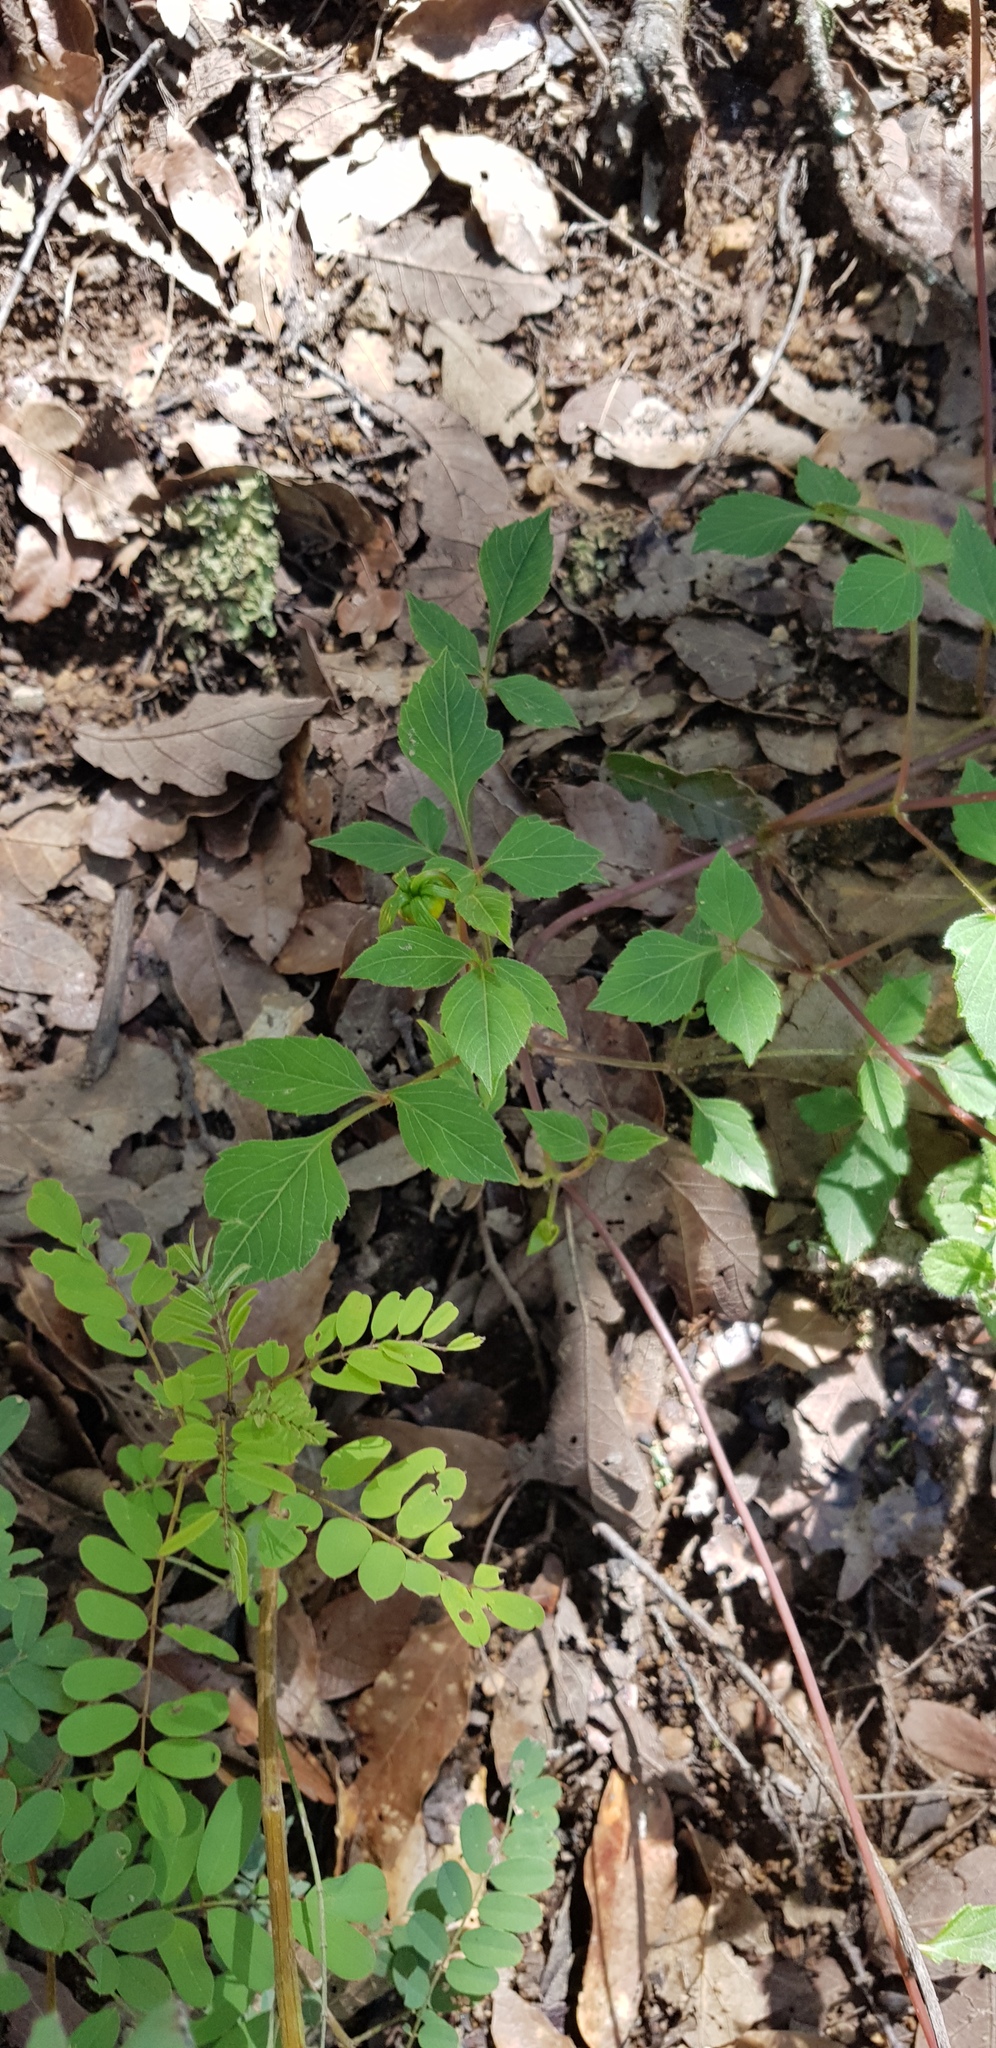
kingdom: Plantae
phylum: Tracheophyta
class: Magnoliopsida
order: Asterales
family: Asteraceae
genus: Dahlia
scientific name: Dahlia coccinea
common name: Red dahlia
